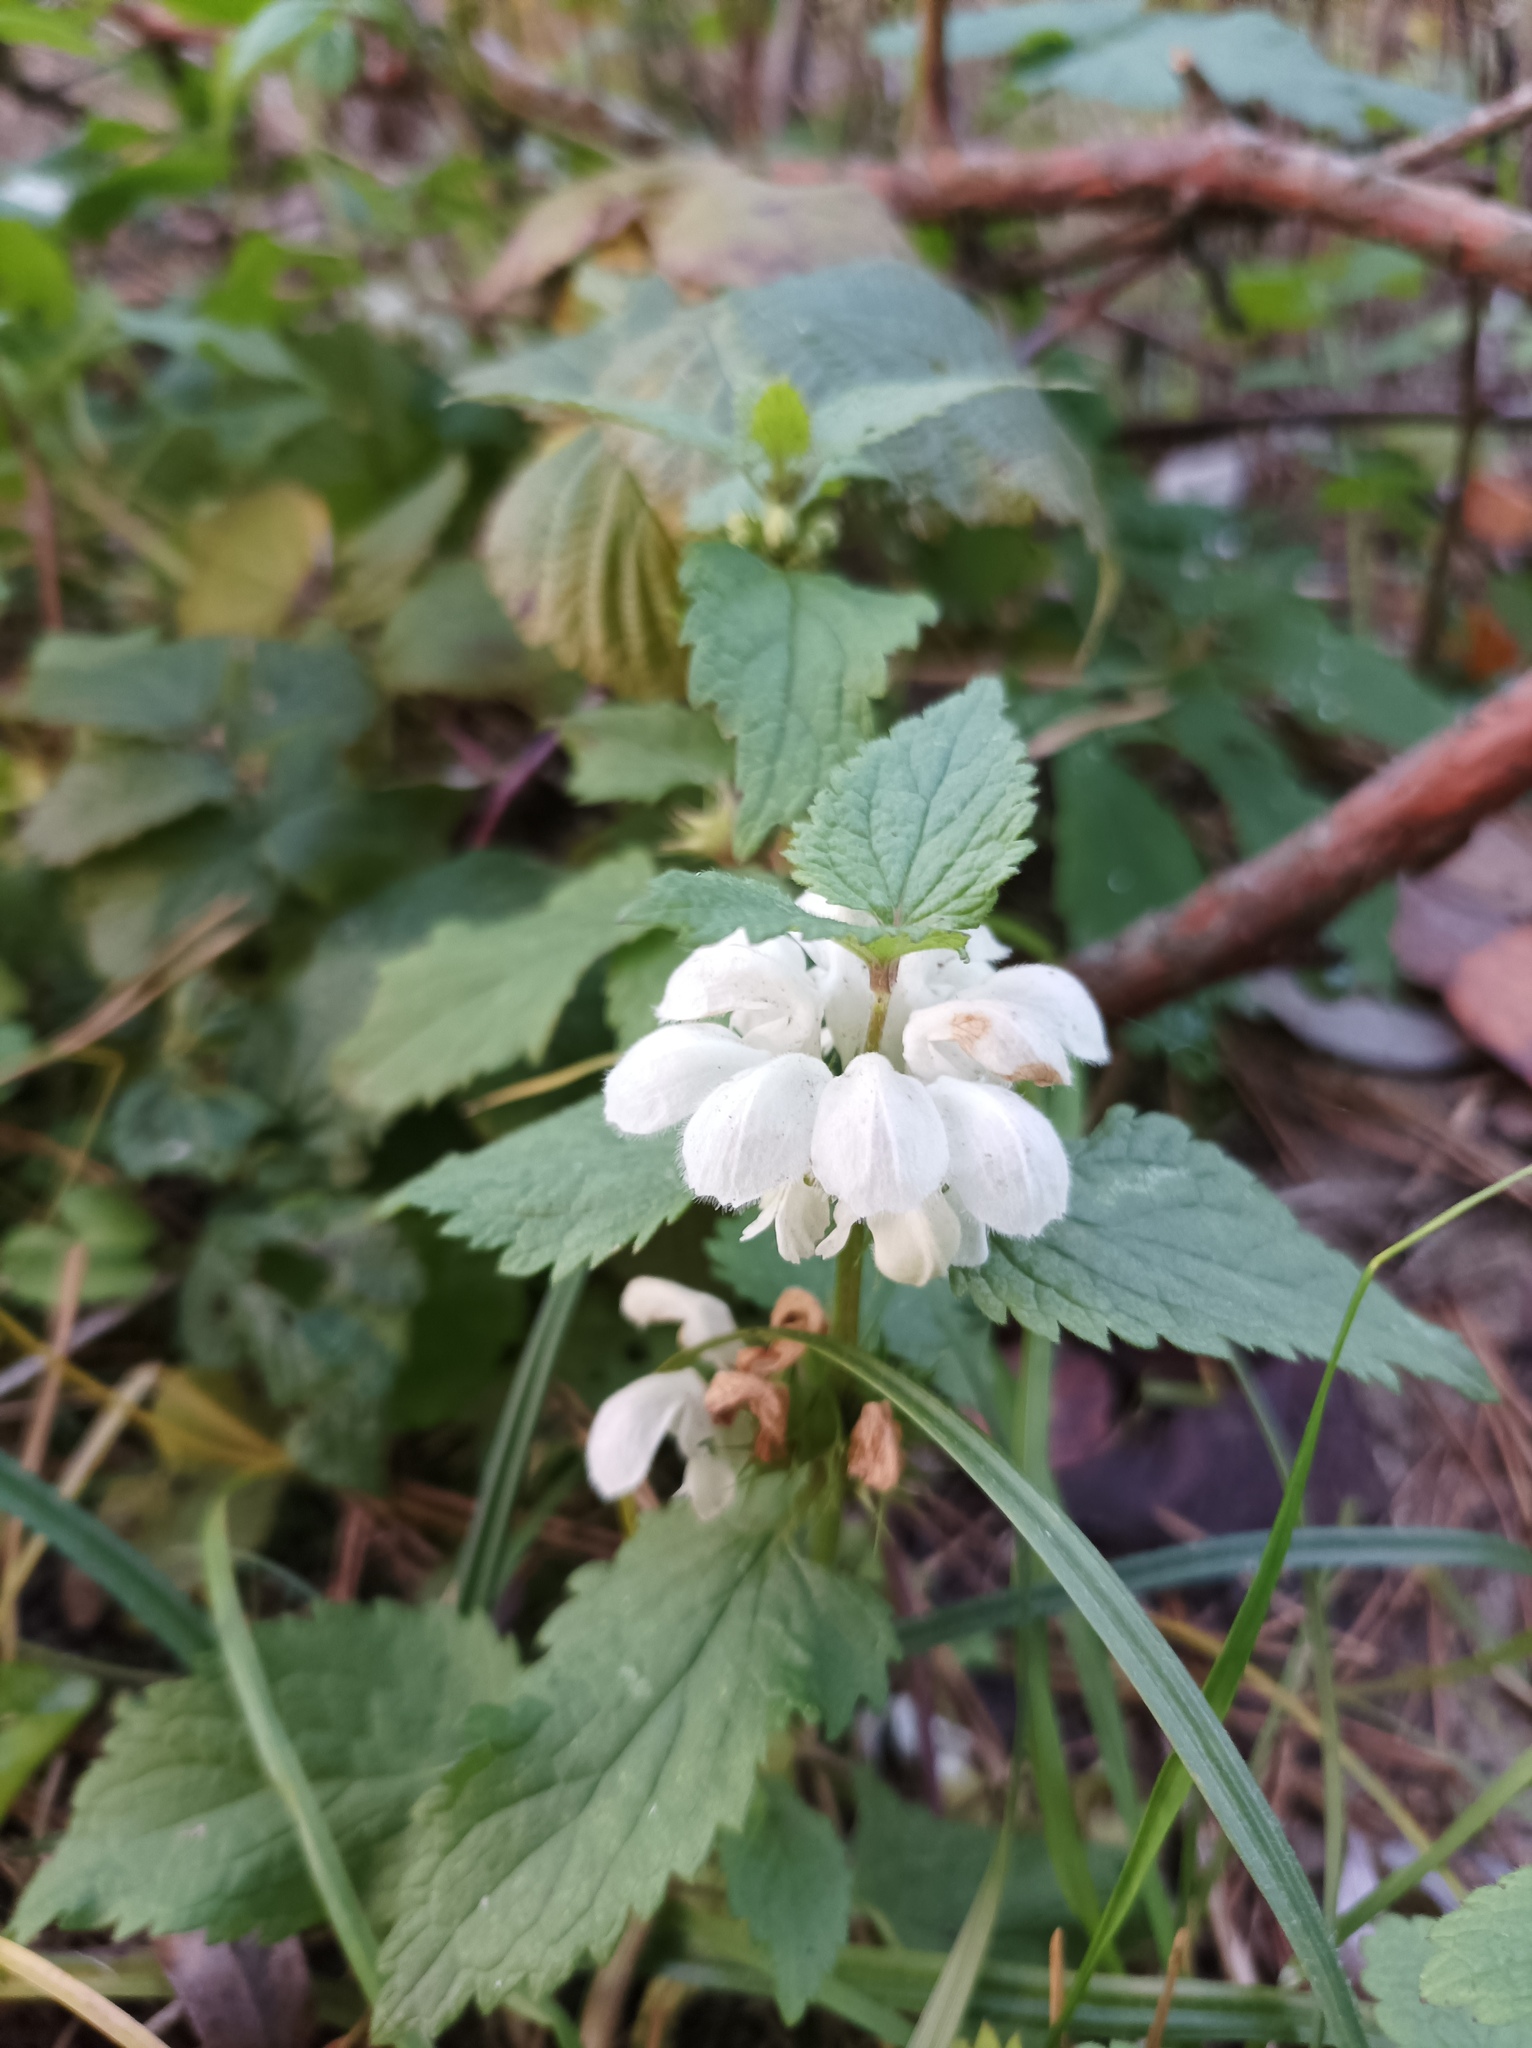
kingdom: Plantae
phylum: Tracheophyta
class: Magnoliopsida
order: Lamiales
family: Lamiaceae
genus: Lamium
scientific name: Lamium album
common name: White dead-nettle
